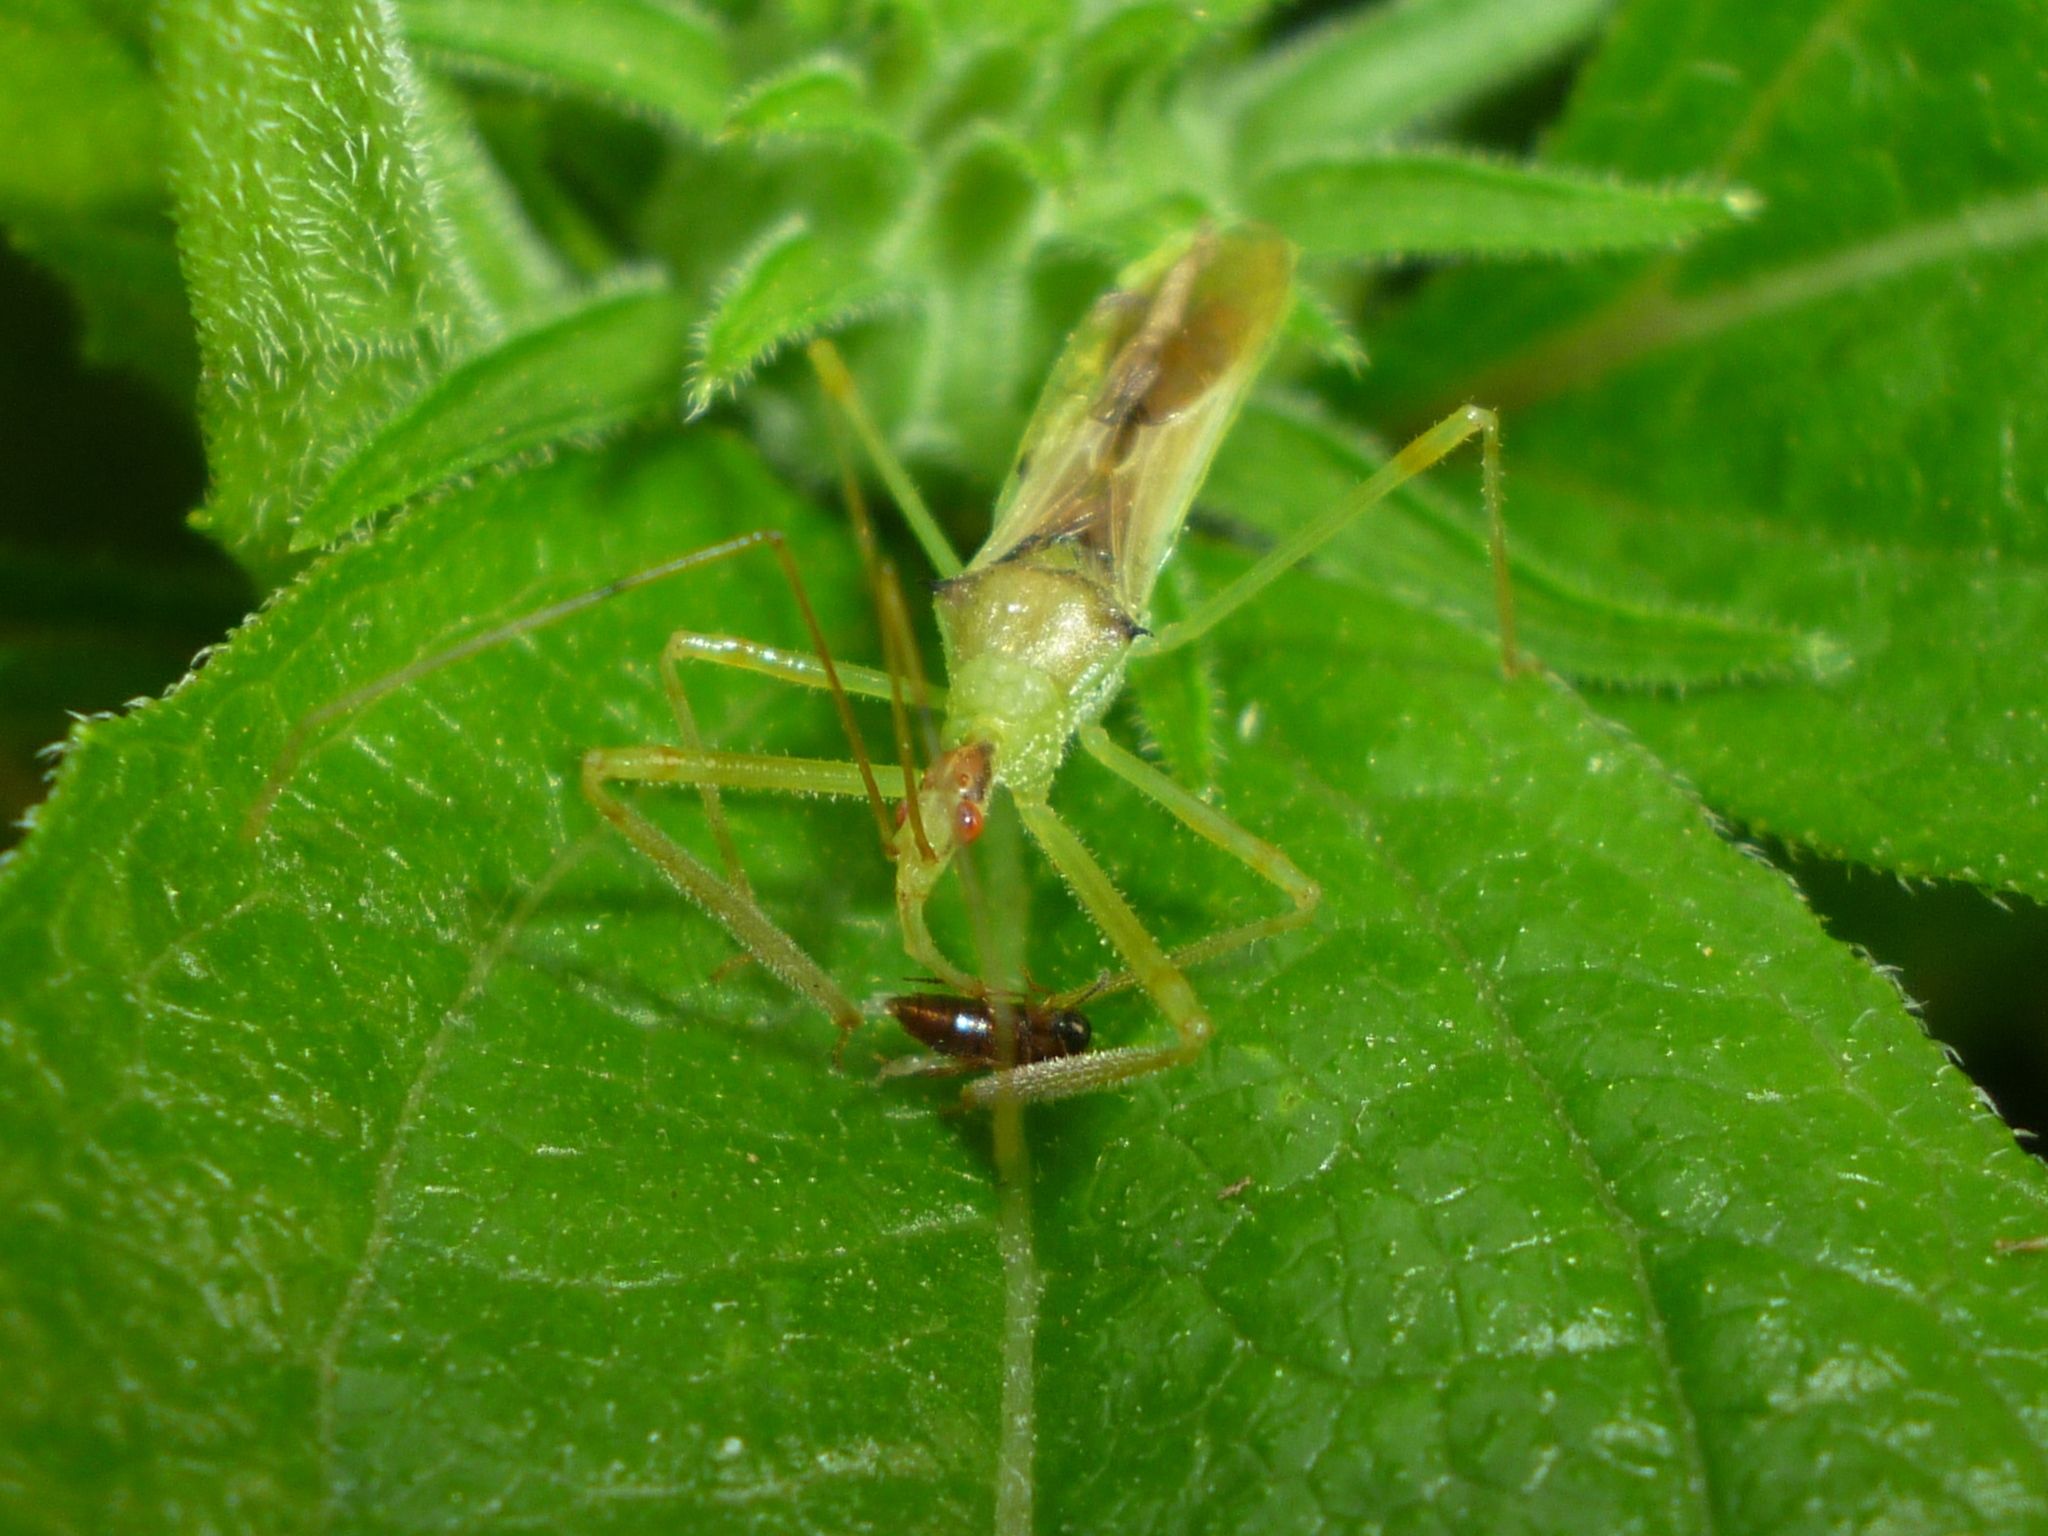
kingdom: Animalia
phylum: Arthropoda
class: Insecta
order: Hemiptera
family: Reduviidae
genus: Zelus
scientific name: Zelus luridus
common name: Pale green assassin bug
